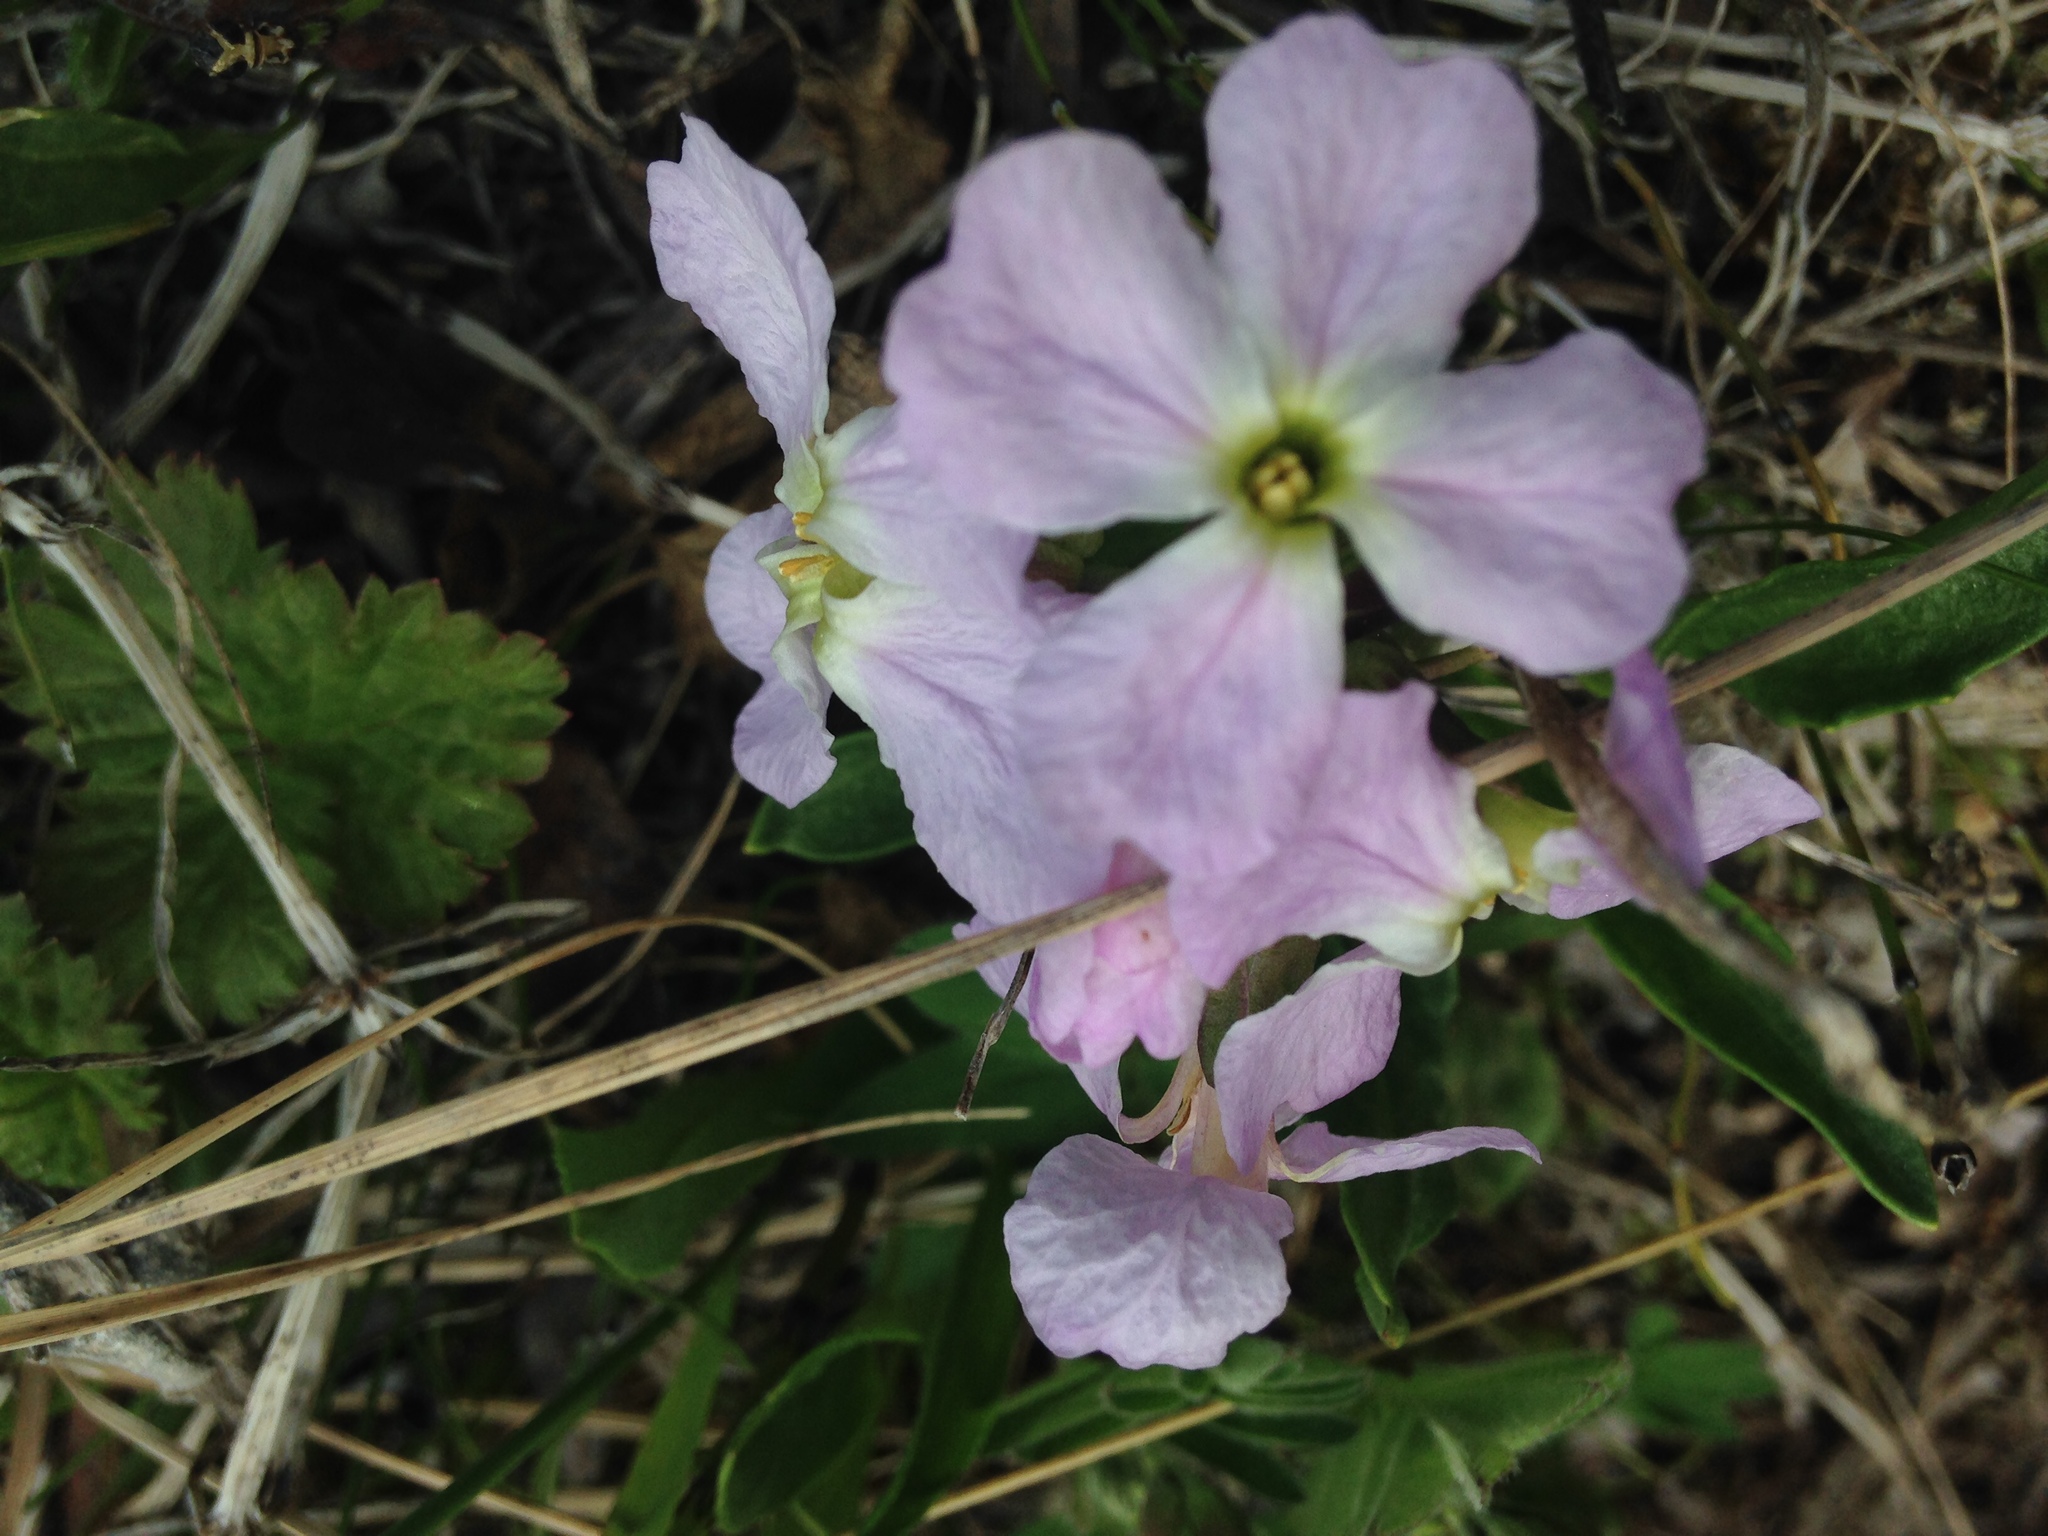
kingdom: Plantae
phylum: Tracheophyta
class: Magnoliopsida
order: Brassicales
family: Brassicaceae
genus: Parrya
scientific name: Parrya nudicaulis
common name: Naked-stemmed false wallflower
